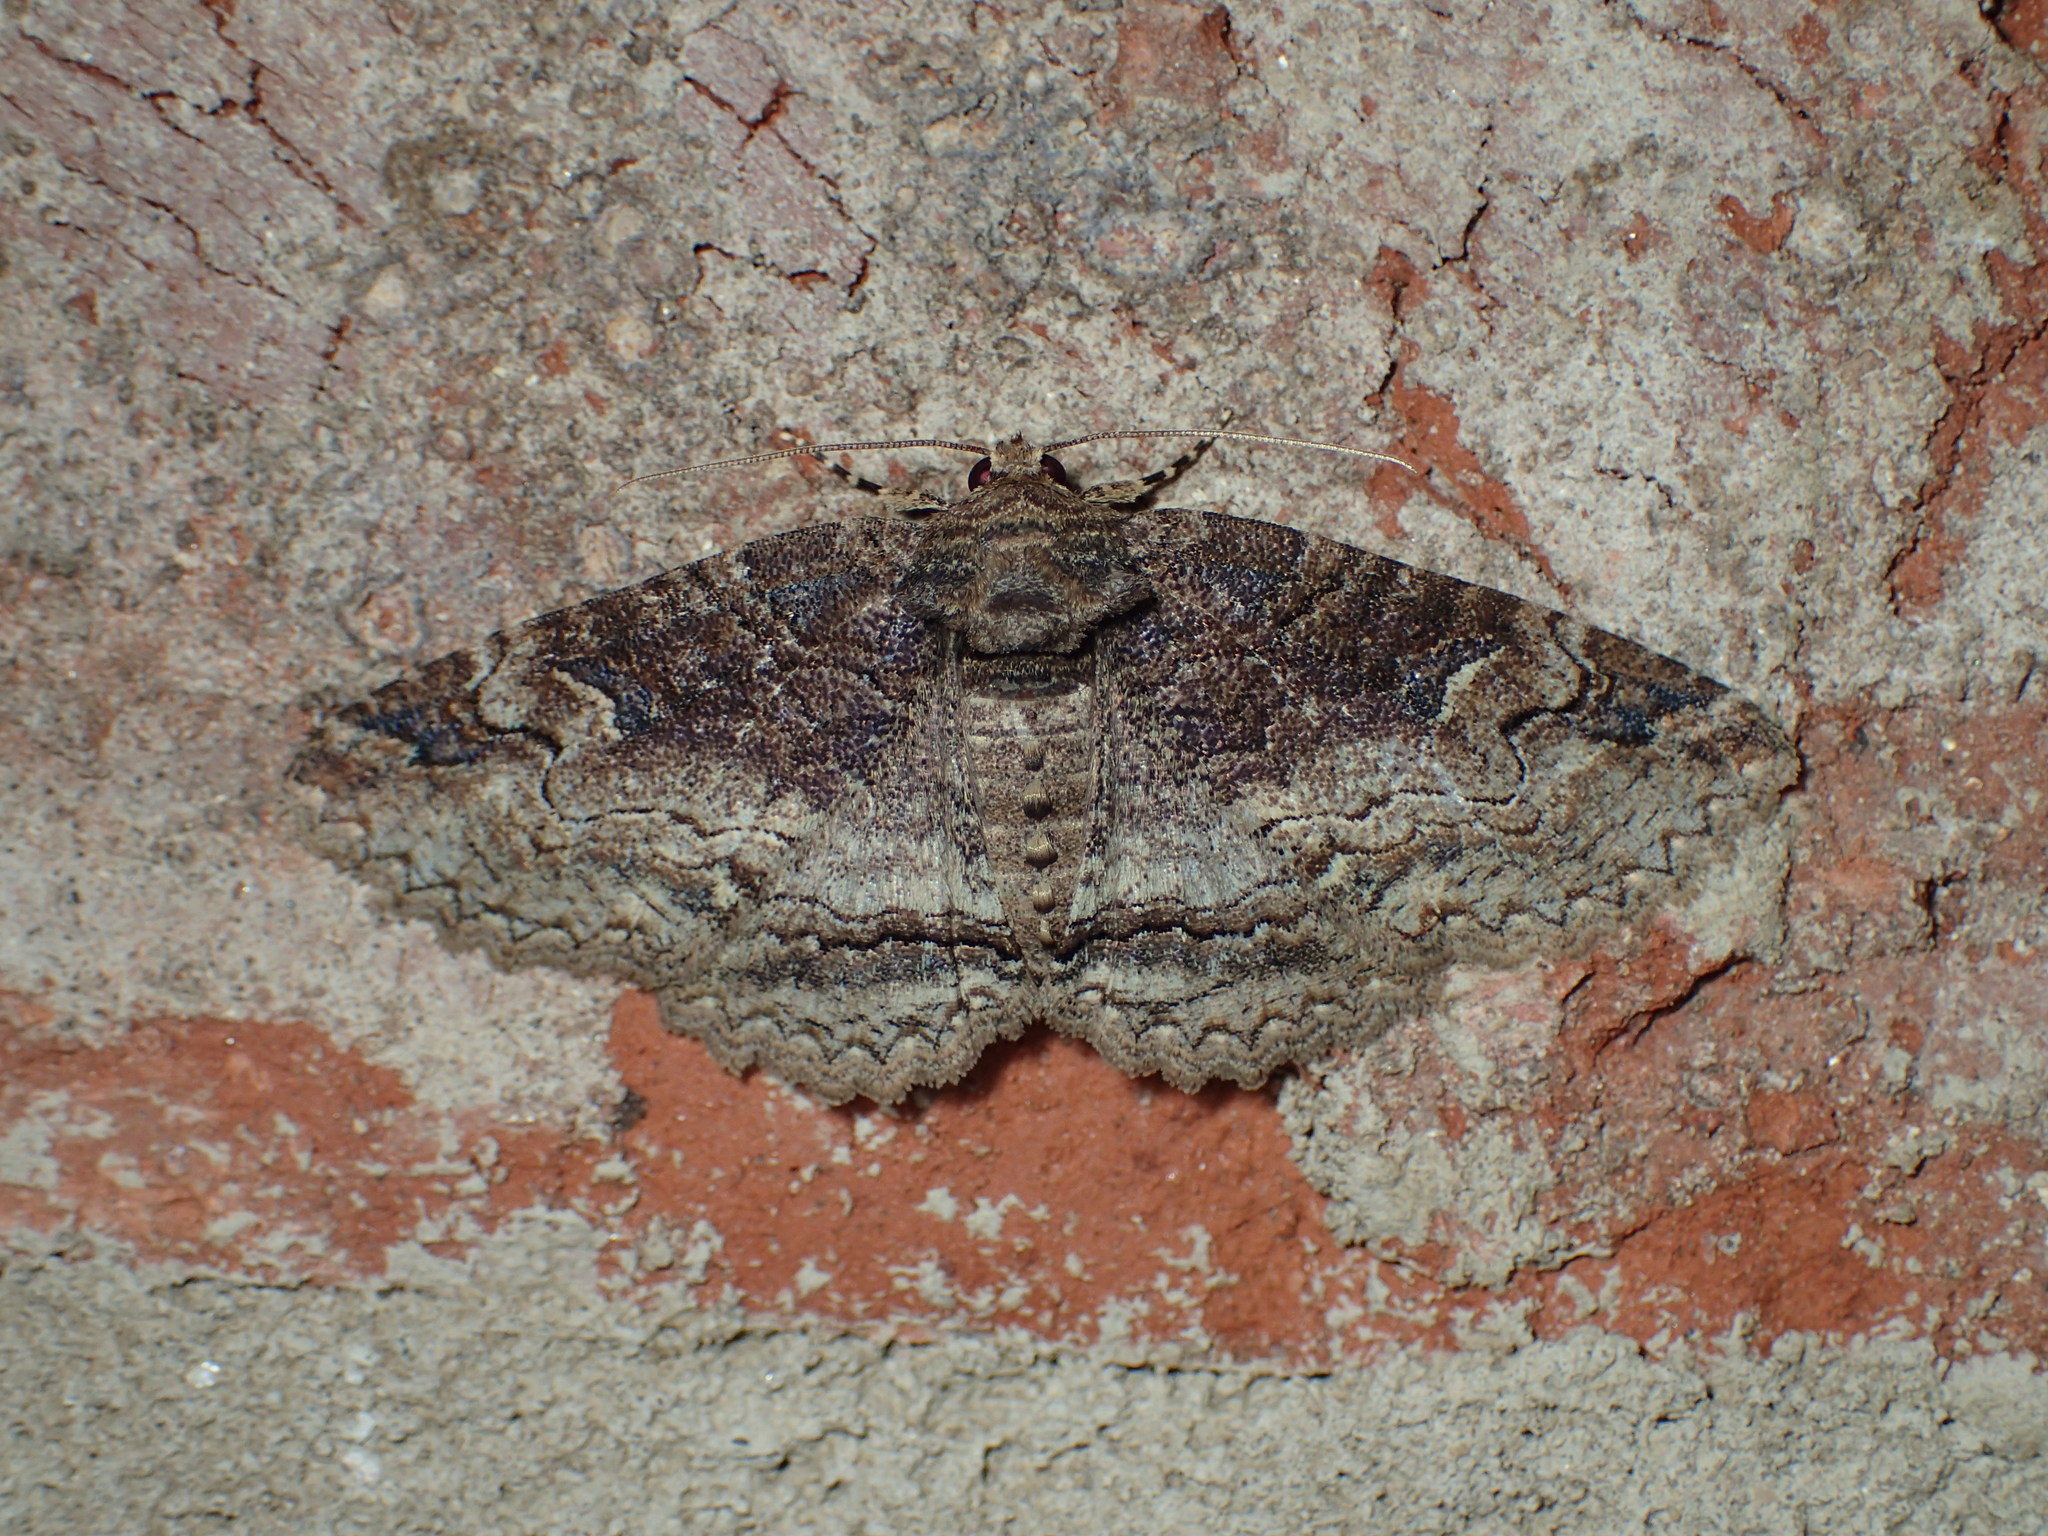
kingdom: Animalia
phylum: Arthropoda
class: Insecta
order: Lepidoptera
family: Erebidae
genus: Zale
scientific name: Zale phaeocapna
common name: Hazel zale moth
